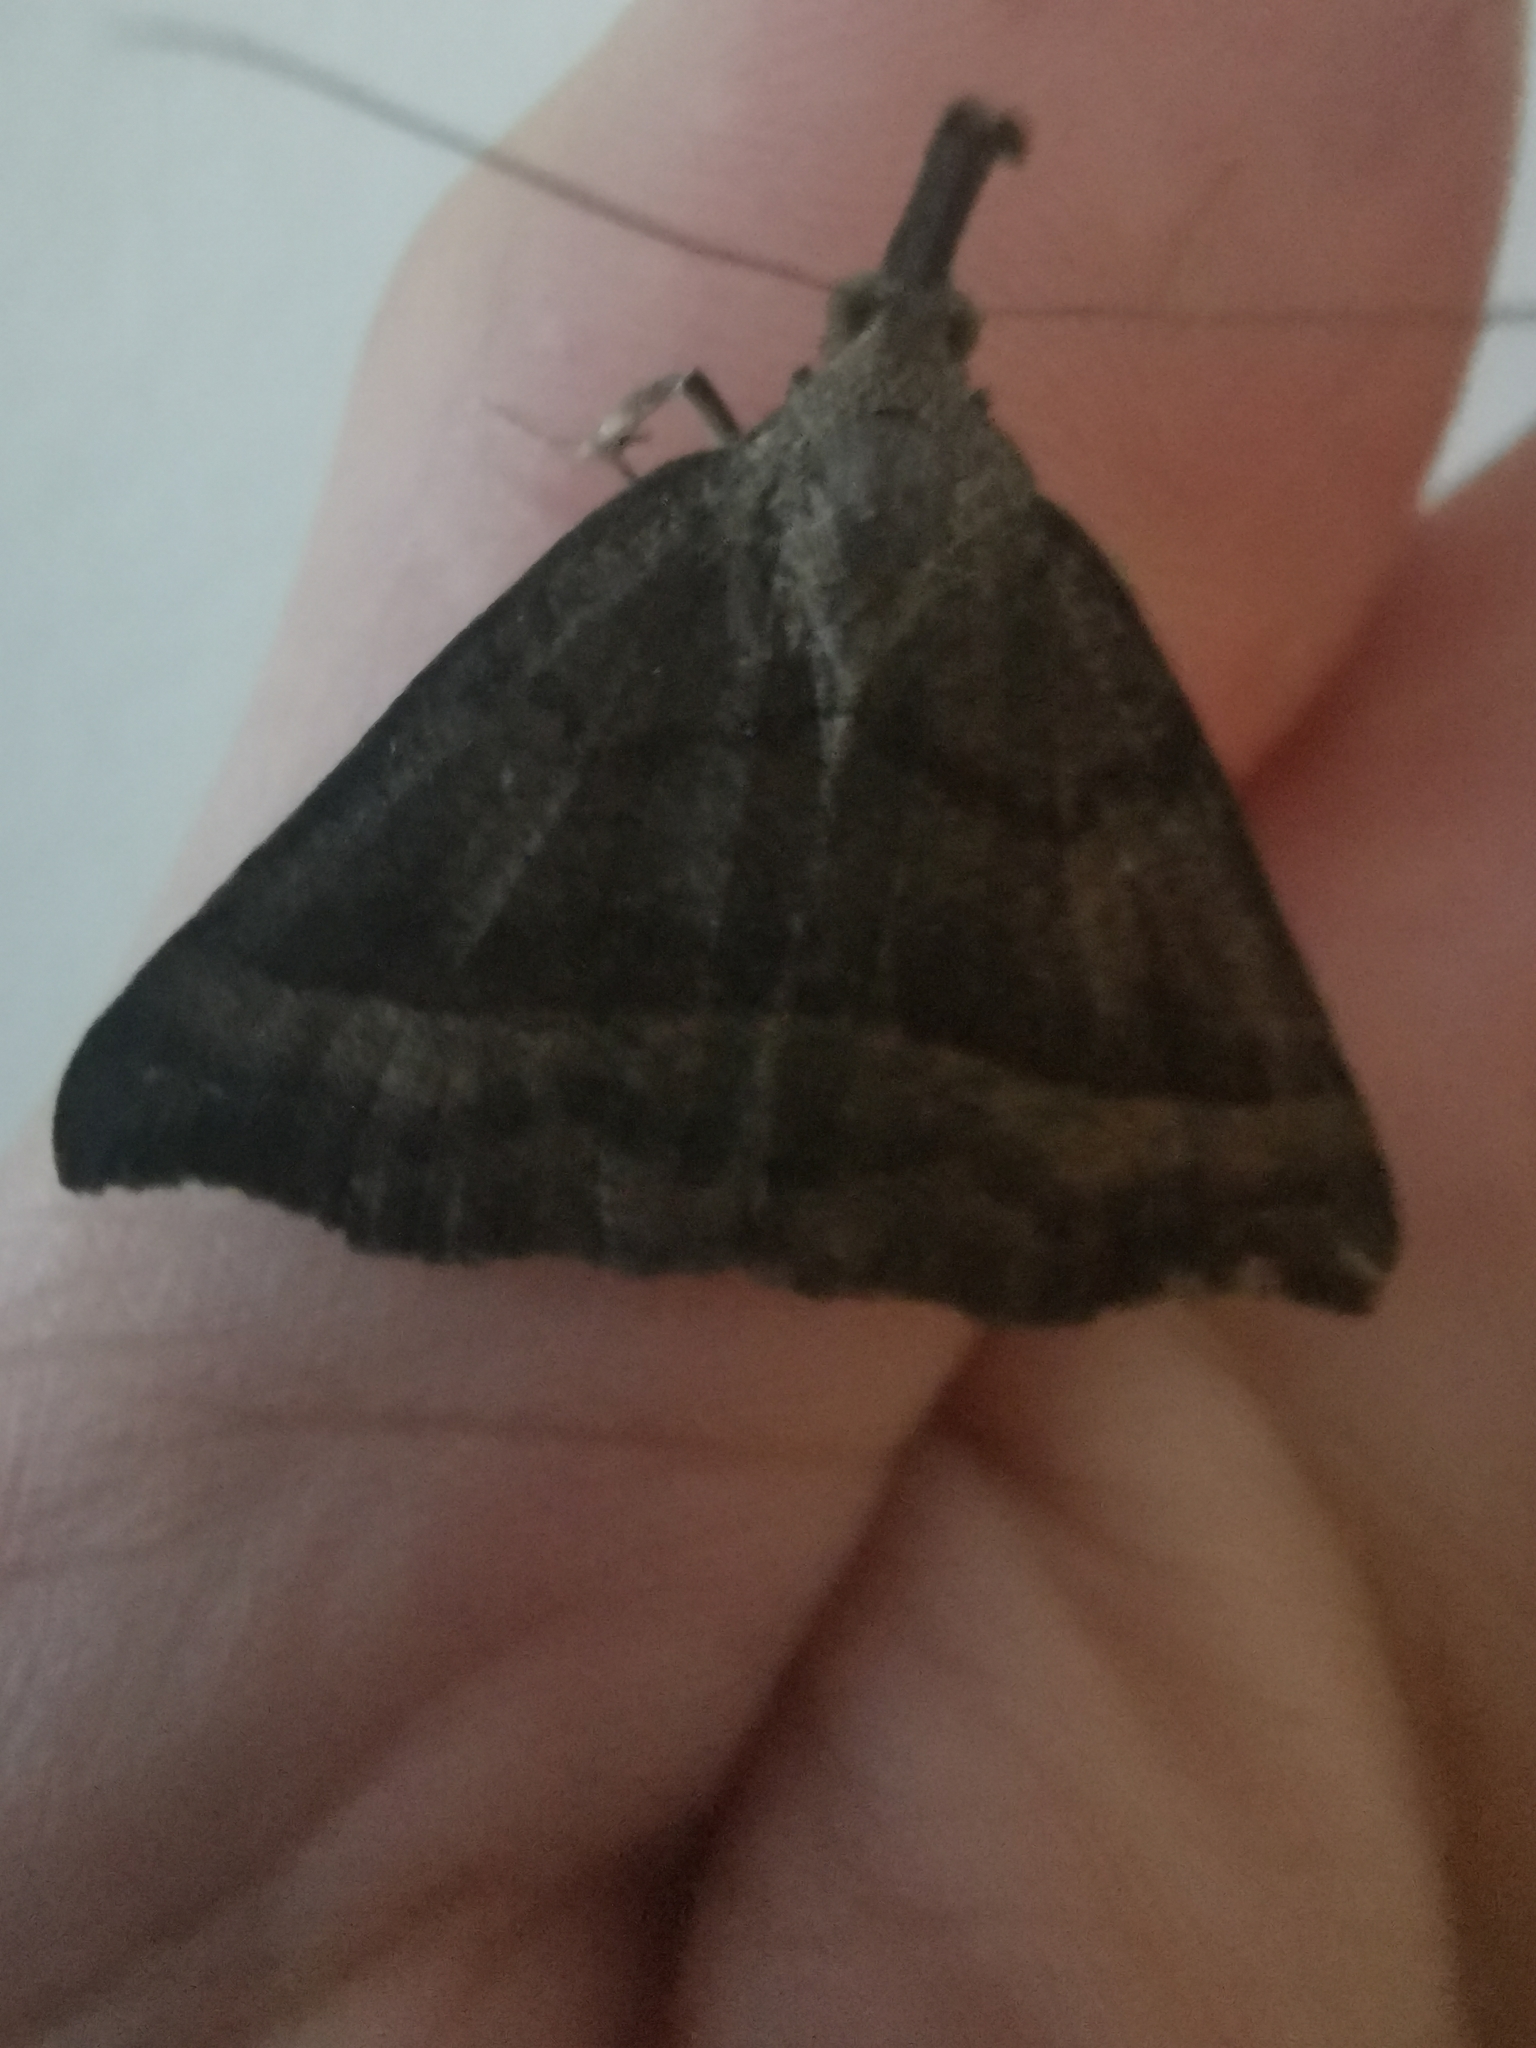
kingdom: Animalia
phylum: Arthropoda
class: Insecta
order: Lepidoptera
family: Erebidae
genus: Hypena
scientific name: Hypena proboscidalis
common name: Snout
